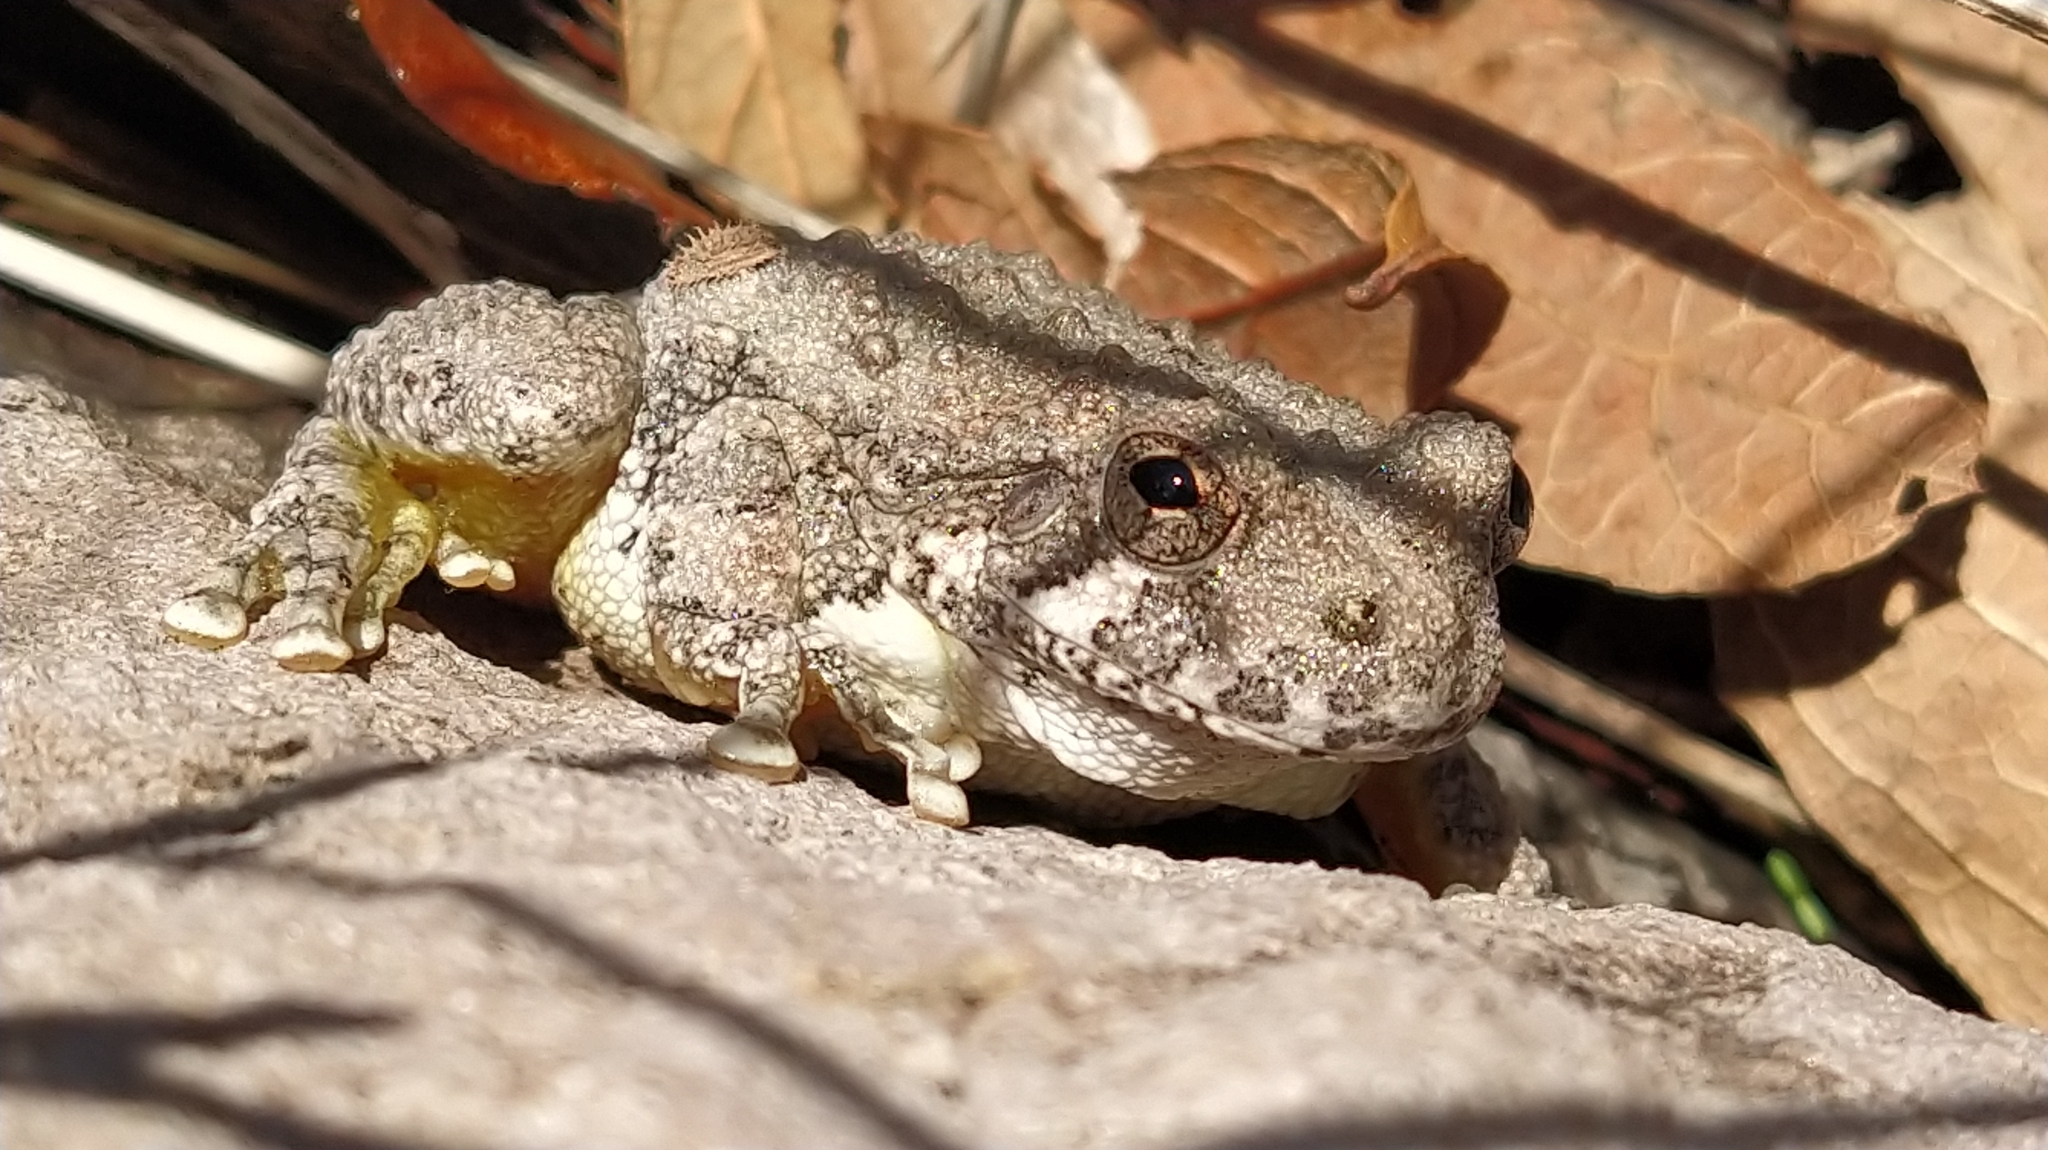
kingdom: Animalia
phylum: Chordata
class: Amphibia
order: Anura
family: Hylidae
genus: Dryophytes
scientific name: Dryophytes arenicolor
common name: Canyon treefrog
